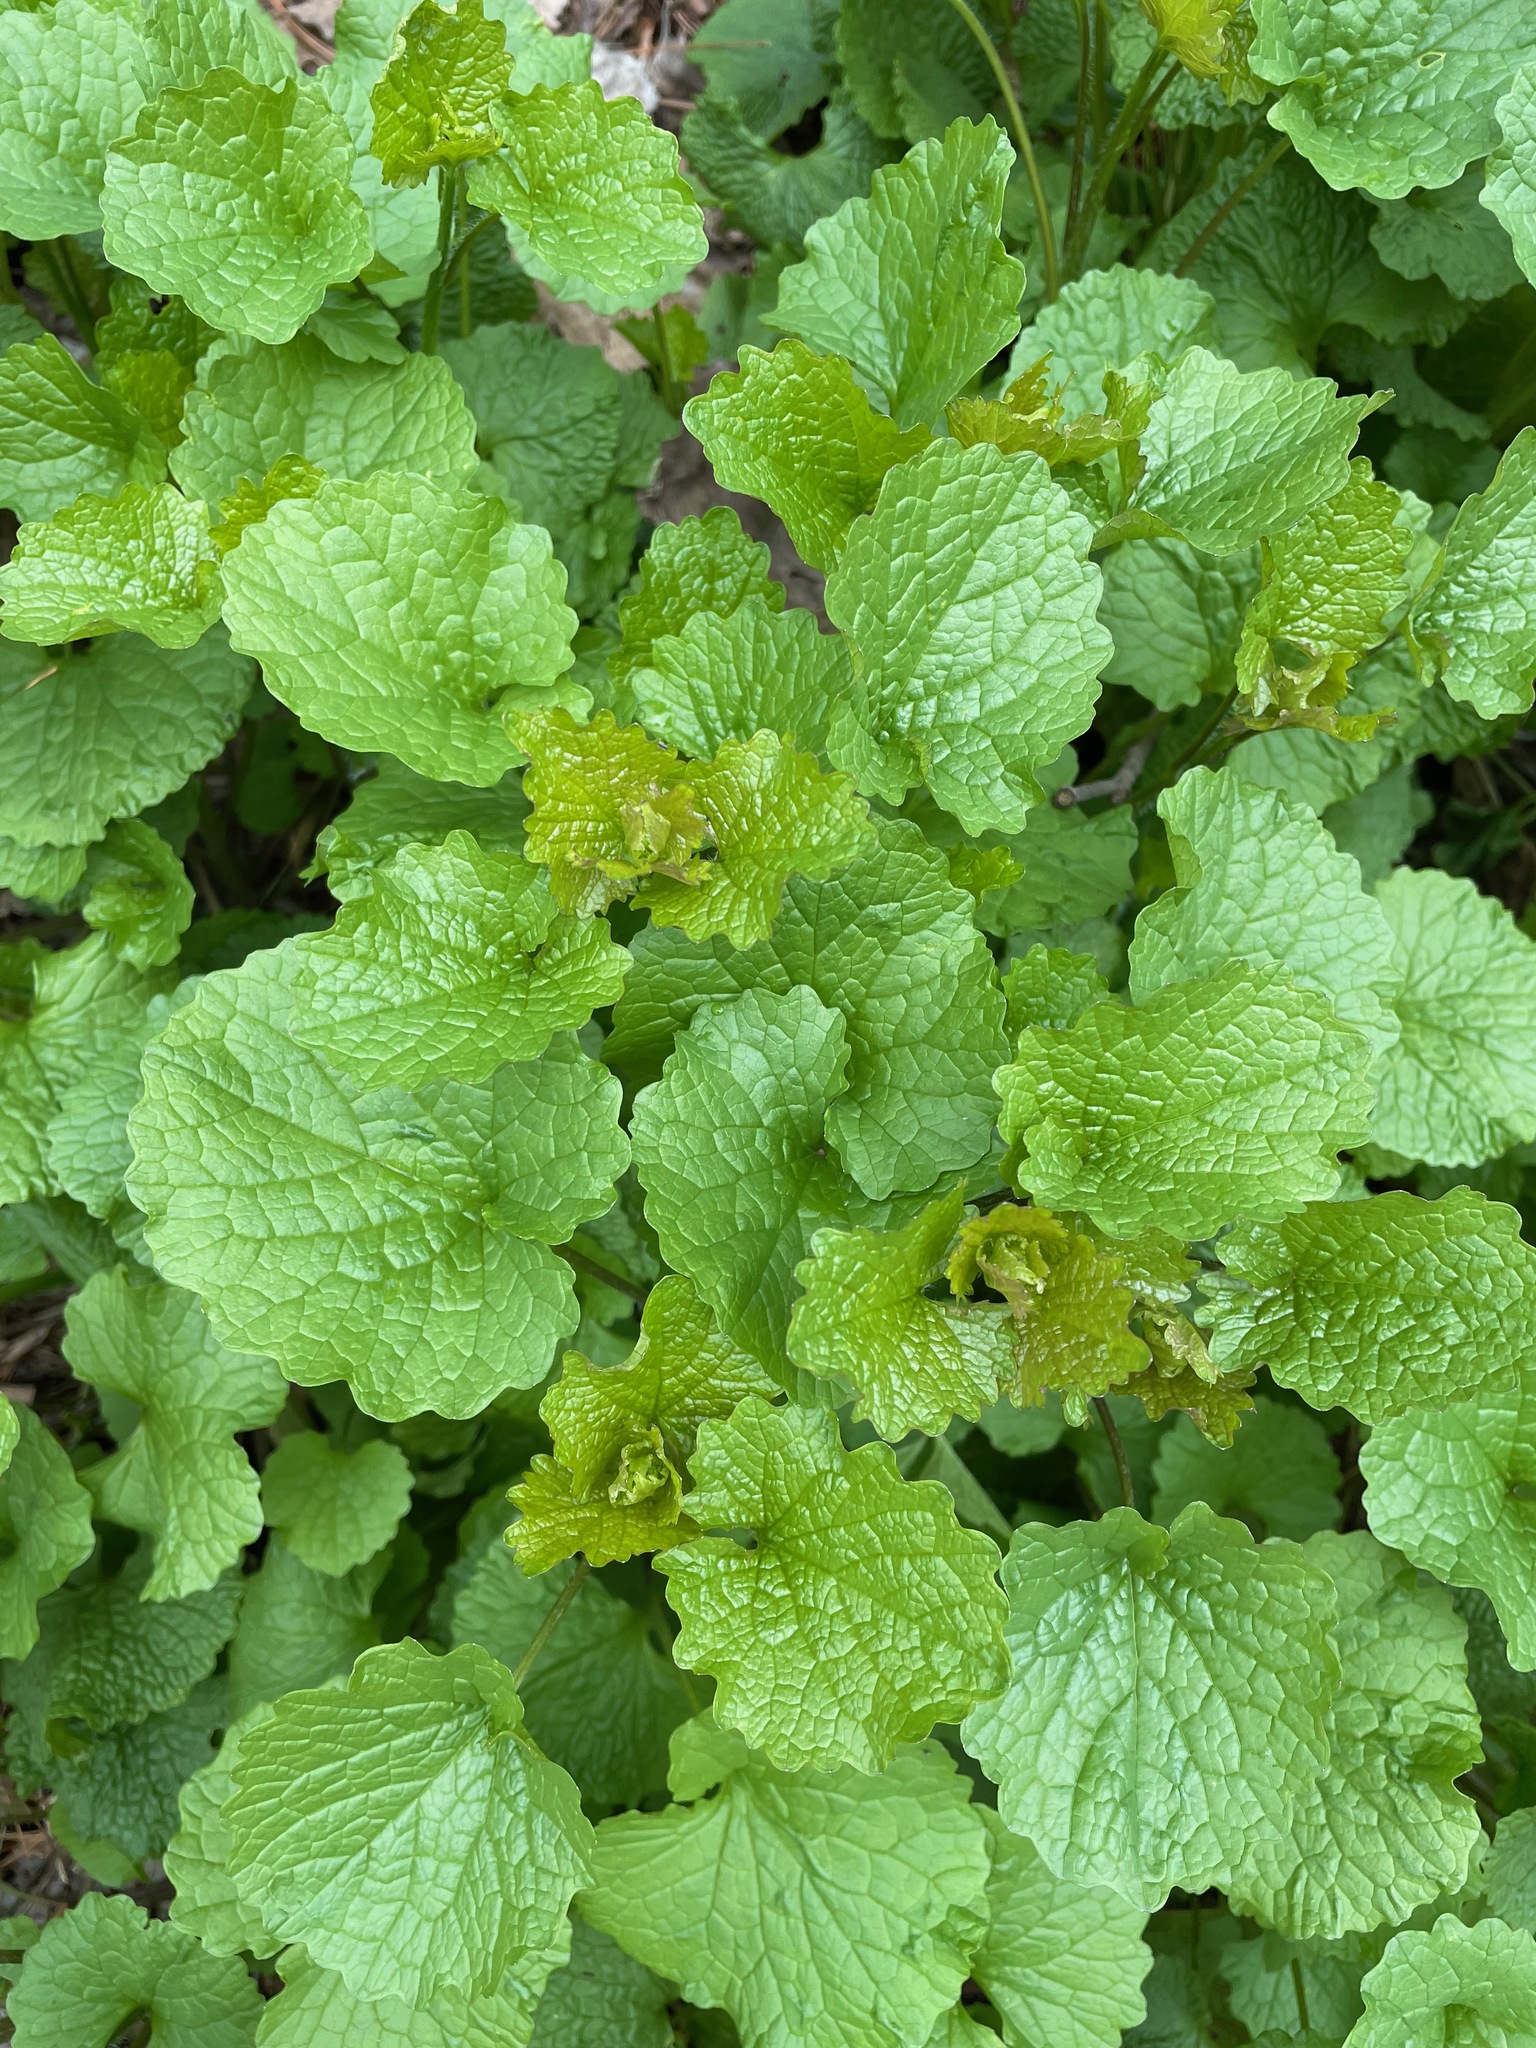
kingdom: Plantae
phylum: Tracheophyta
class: Magnoliopsida
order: Brassicales
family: Brassicaceae
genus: Alliaria
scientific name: Alliaria petiolata
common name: Garlic mustard
